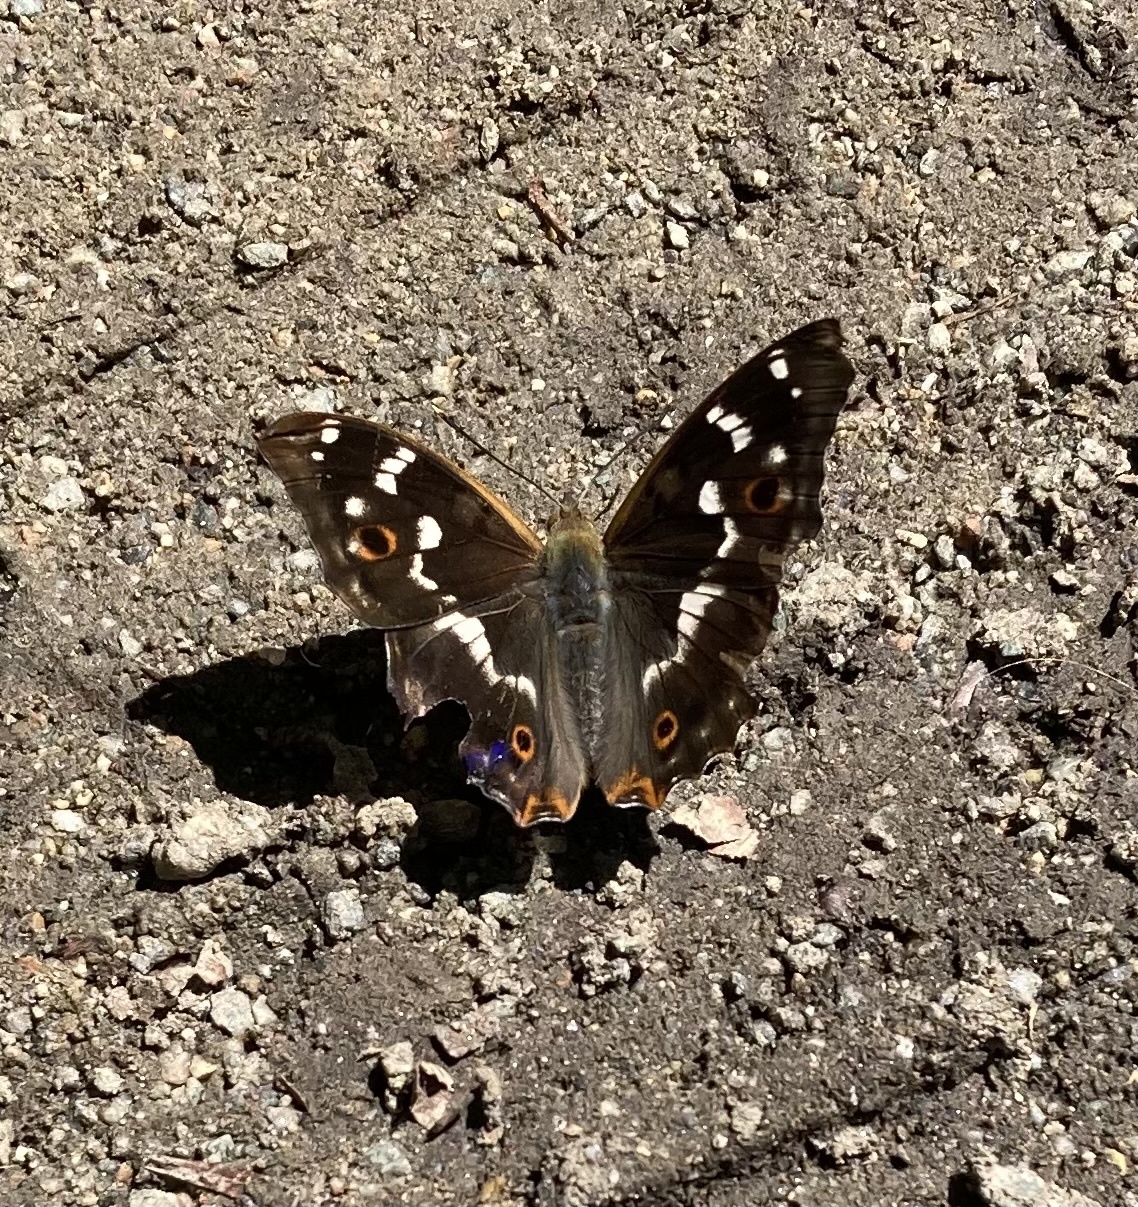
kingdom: Animalia
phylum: Arthropoda
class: Insecta
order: Lepidoptera
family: Nymphalidae
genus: Apatura
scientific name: Apatura ilia
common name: Lesser purple emperor
